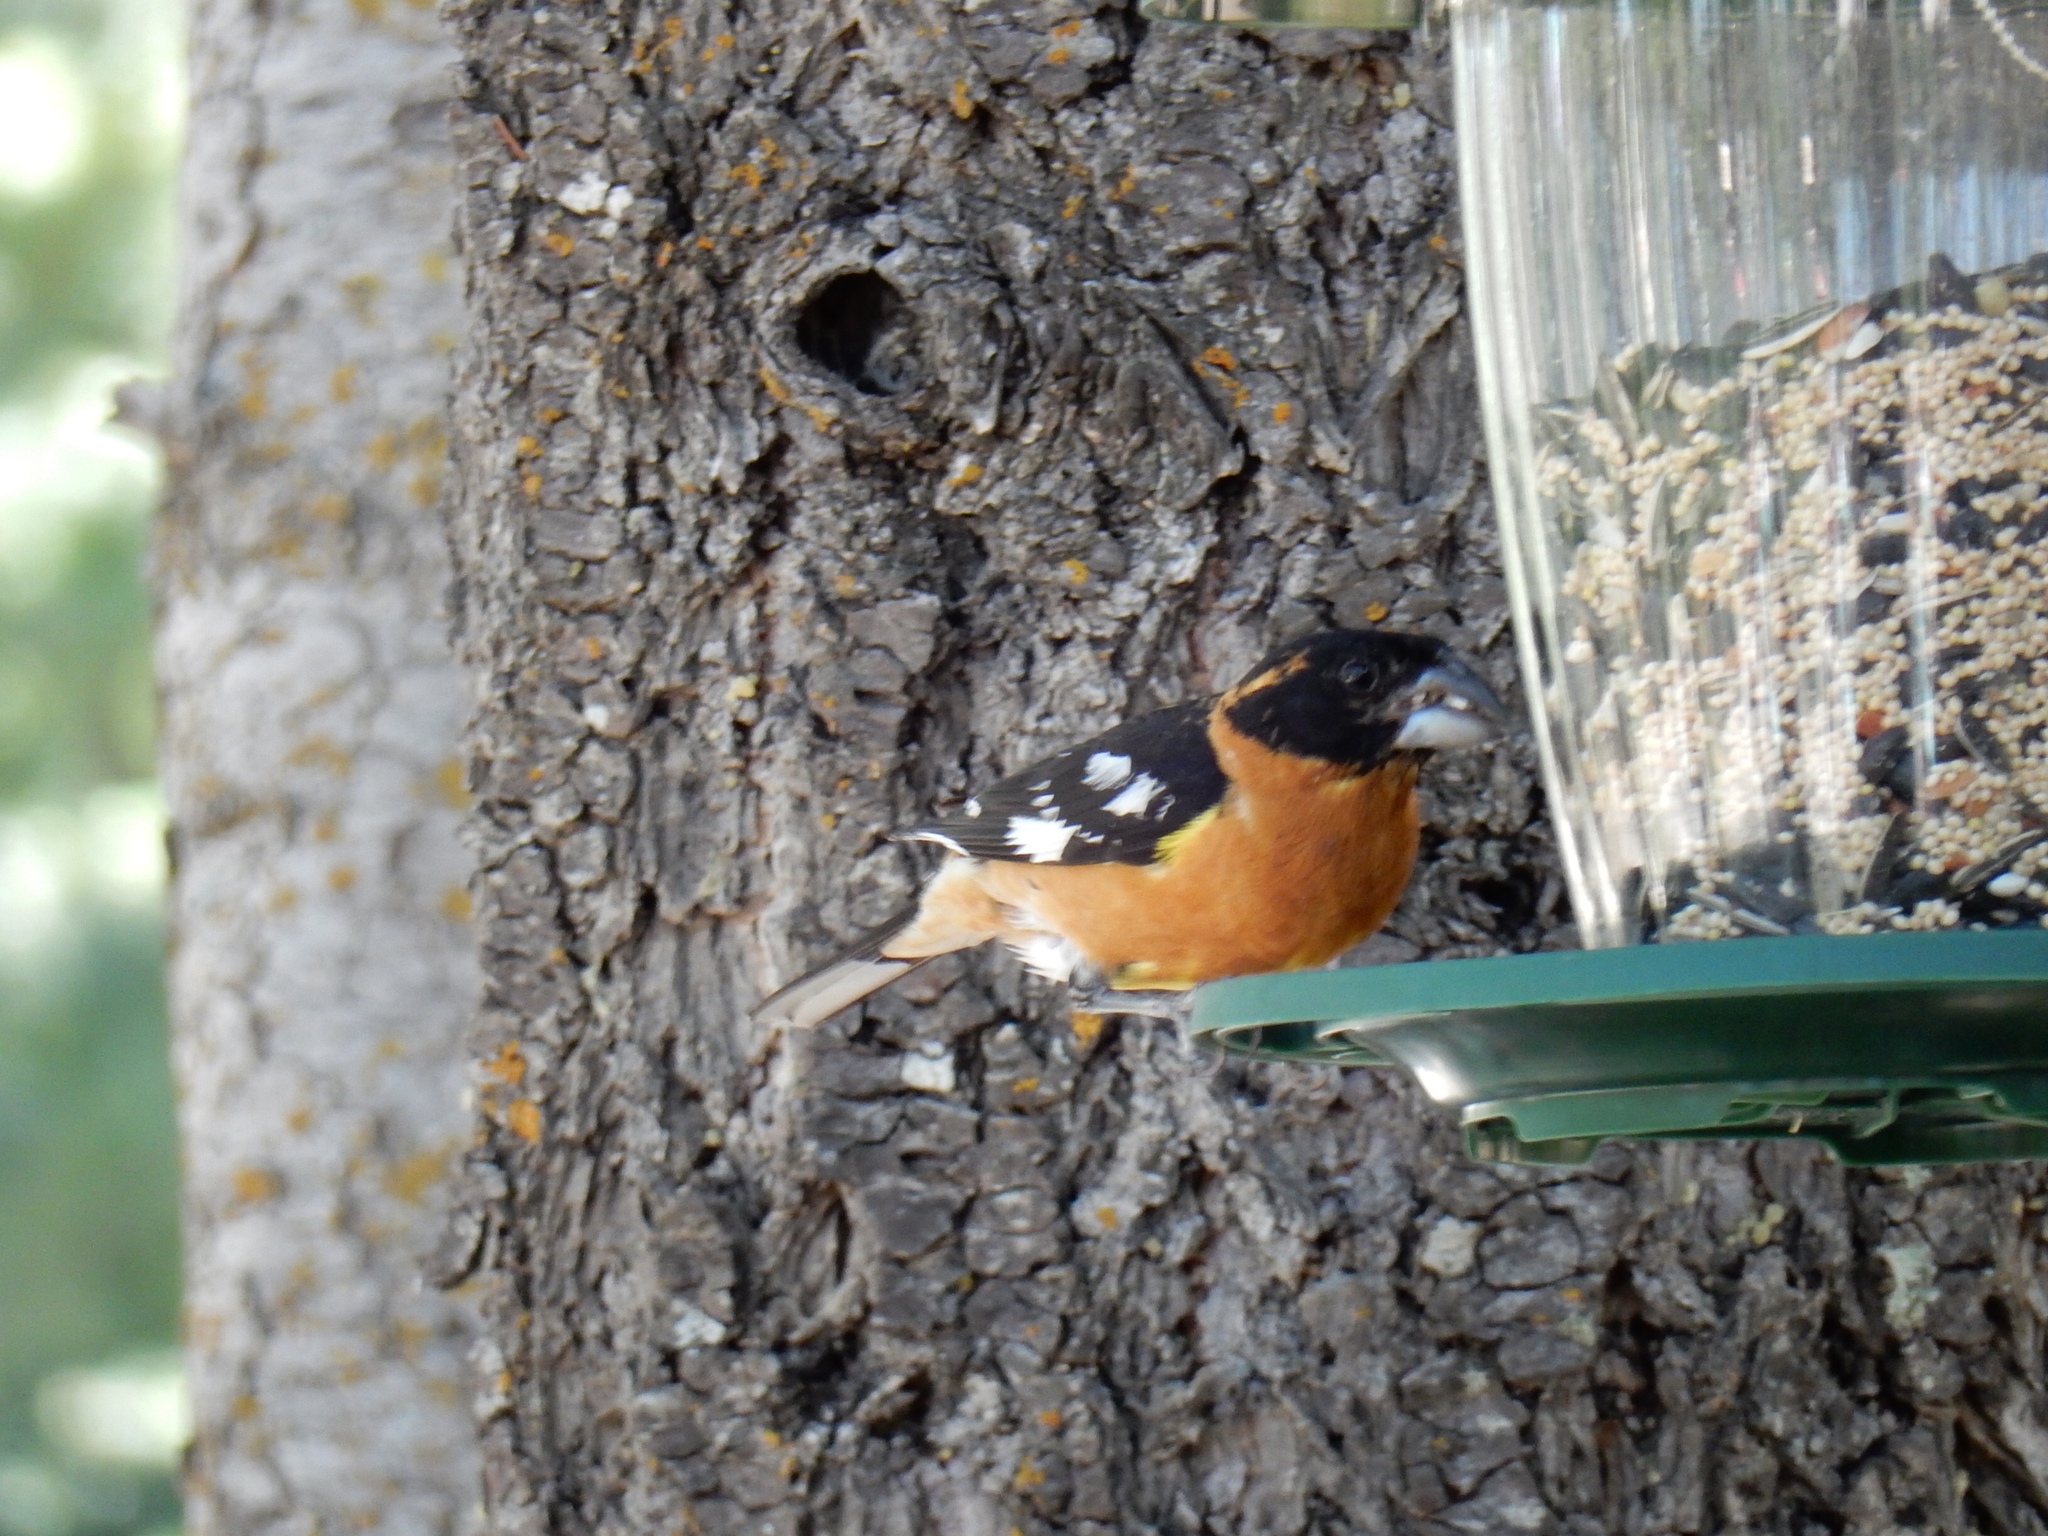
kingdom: Animalia
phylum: Chordata
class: Aves
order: Passeriformes
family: Cardinalidae
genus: Pheucticus
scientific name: Pheucticus melanocephalus
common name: Black-headed grosbeak
